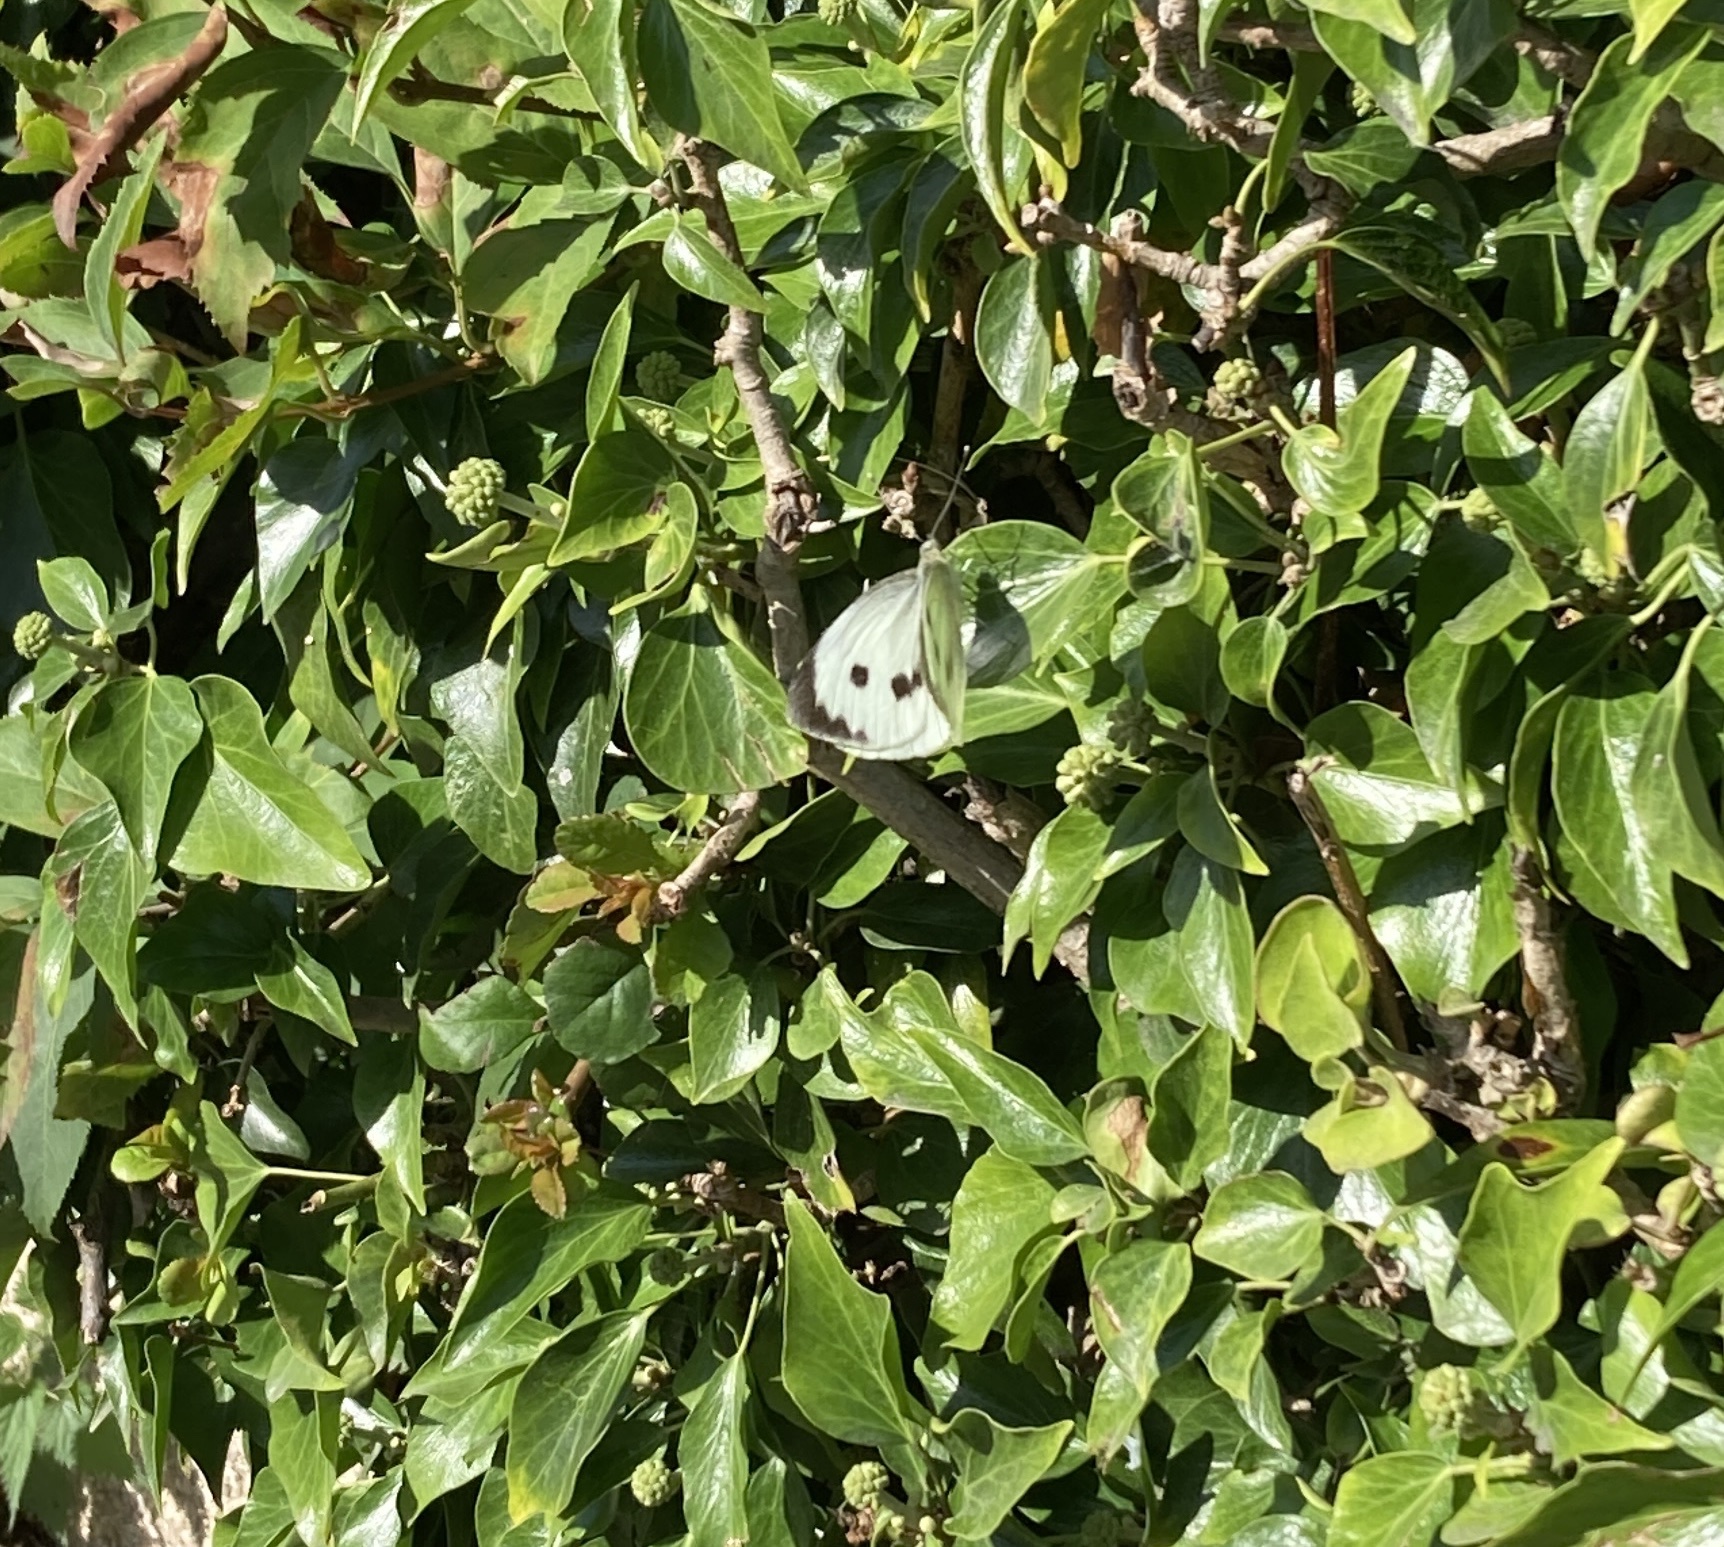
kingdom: Animalia
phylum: Arthropoda
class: Insecta
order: Lepidoptera
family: Pieridae
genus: Pieris
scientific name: Pieris brassicae
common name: Large white
